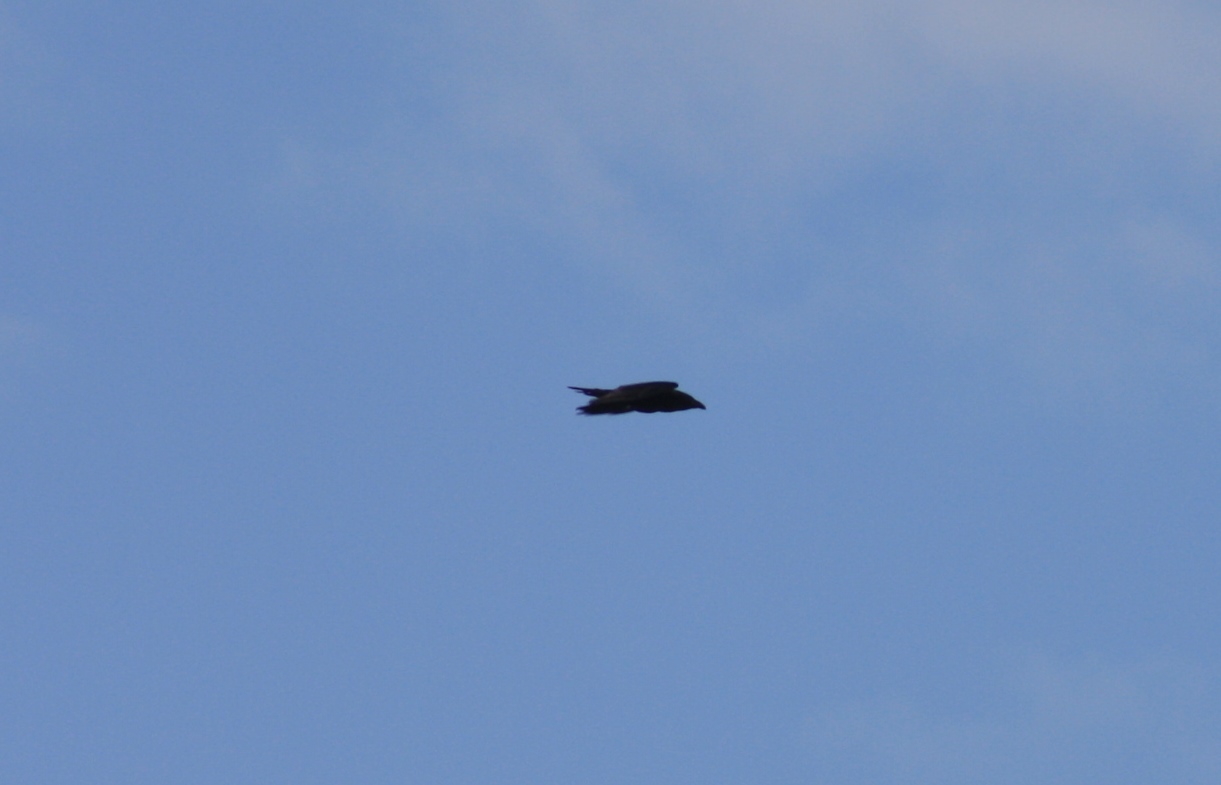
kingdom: Animalia
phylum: Chordata
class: Aves
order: Passeriformes
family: Corvidae
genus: Corvus
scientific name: Corvus corax
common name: Common raven
